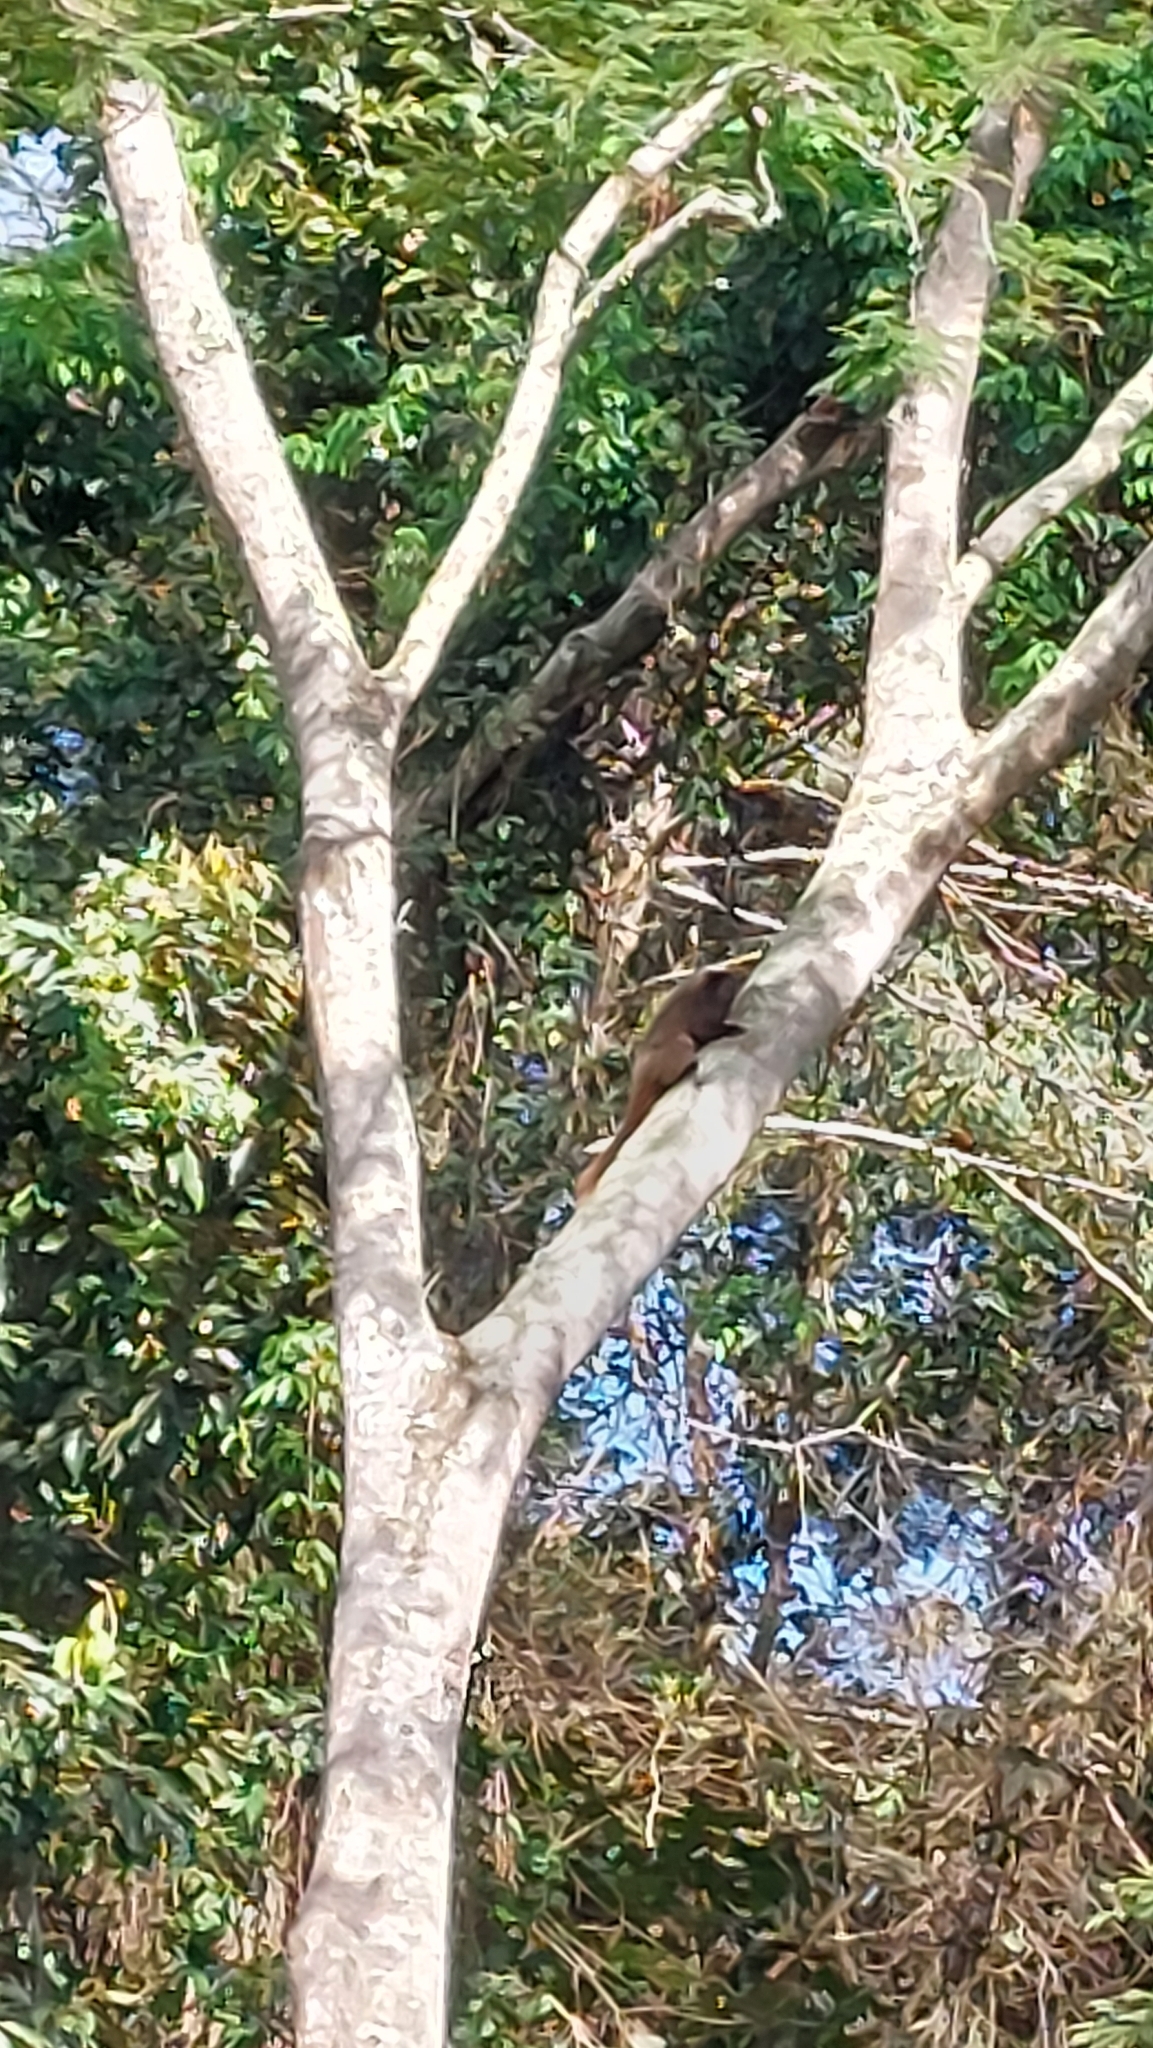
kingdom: Animalia
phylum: Chordata
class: Mammalia
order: Primates
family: Pitheciidae
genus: Callicebus
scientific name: Callicebus nigrifrons
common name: Black-fronted titi
